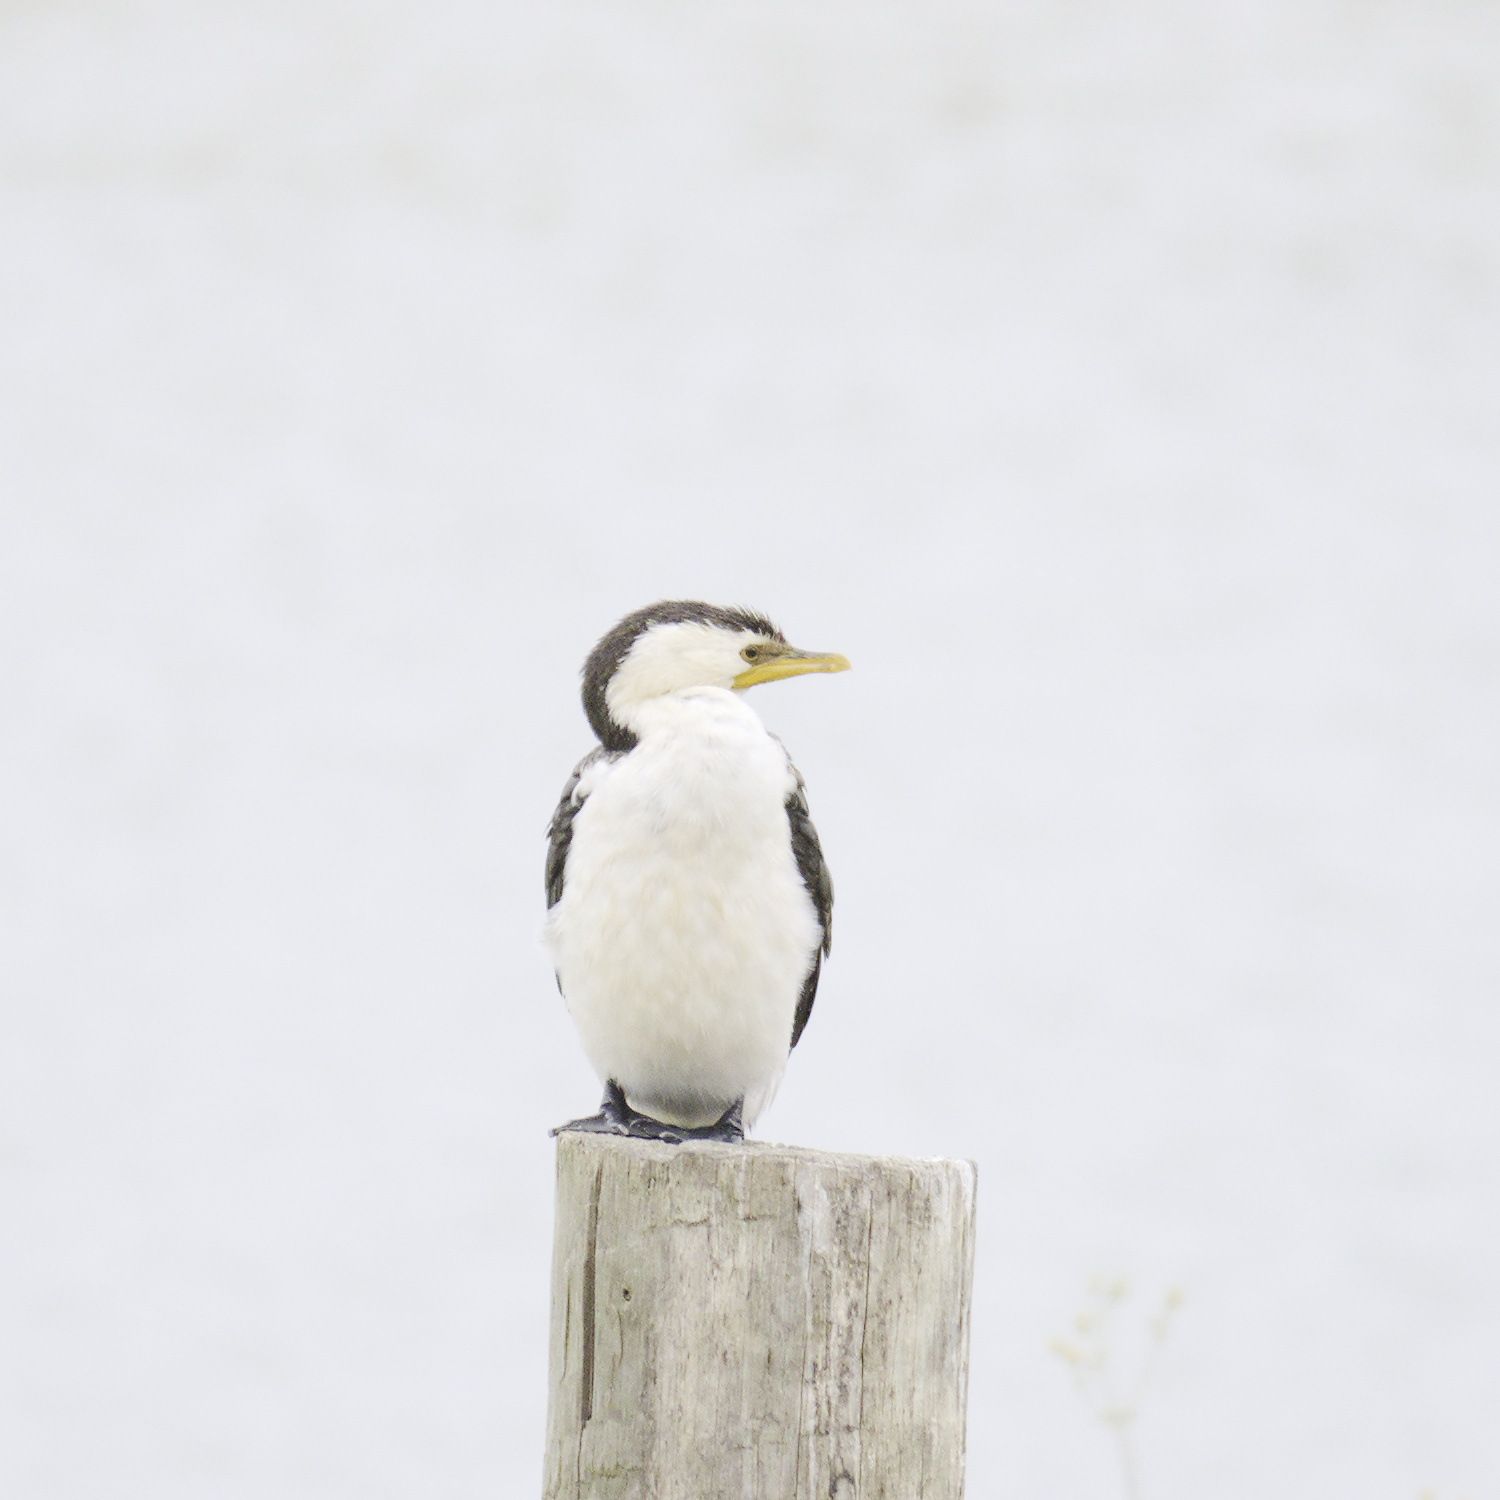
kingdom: Animalia
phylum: Chordata
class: Aves
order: Suliformes
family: Phalacrocoracidae
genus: Microcarbo
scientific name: Microcarbo melanoleucos
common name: Little pied cormorant
